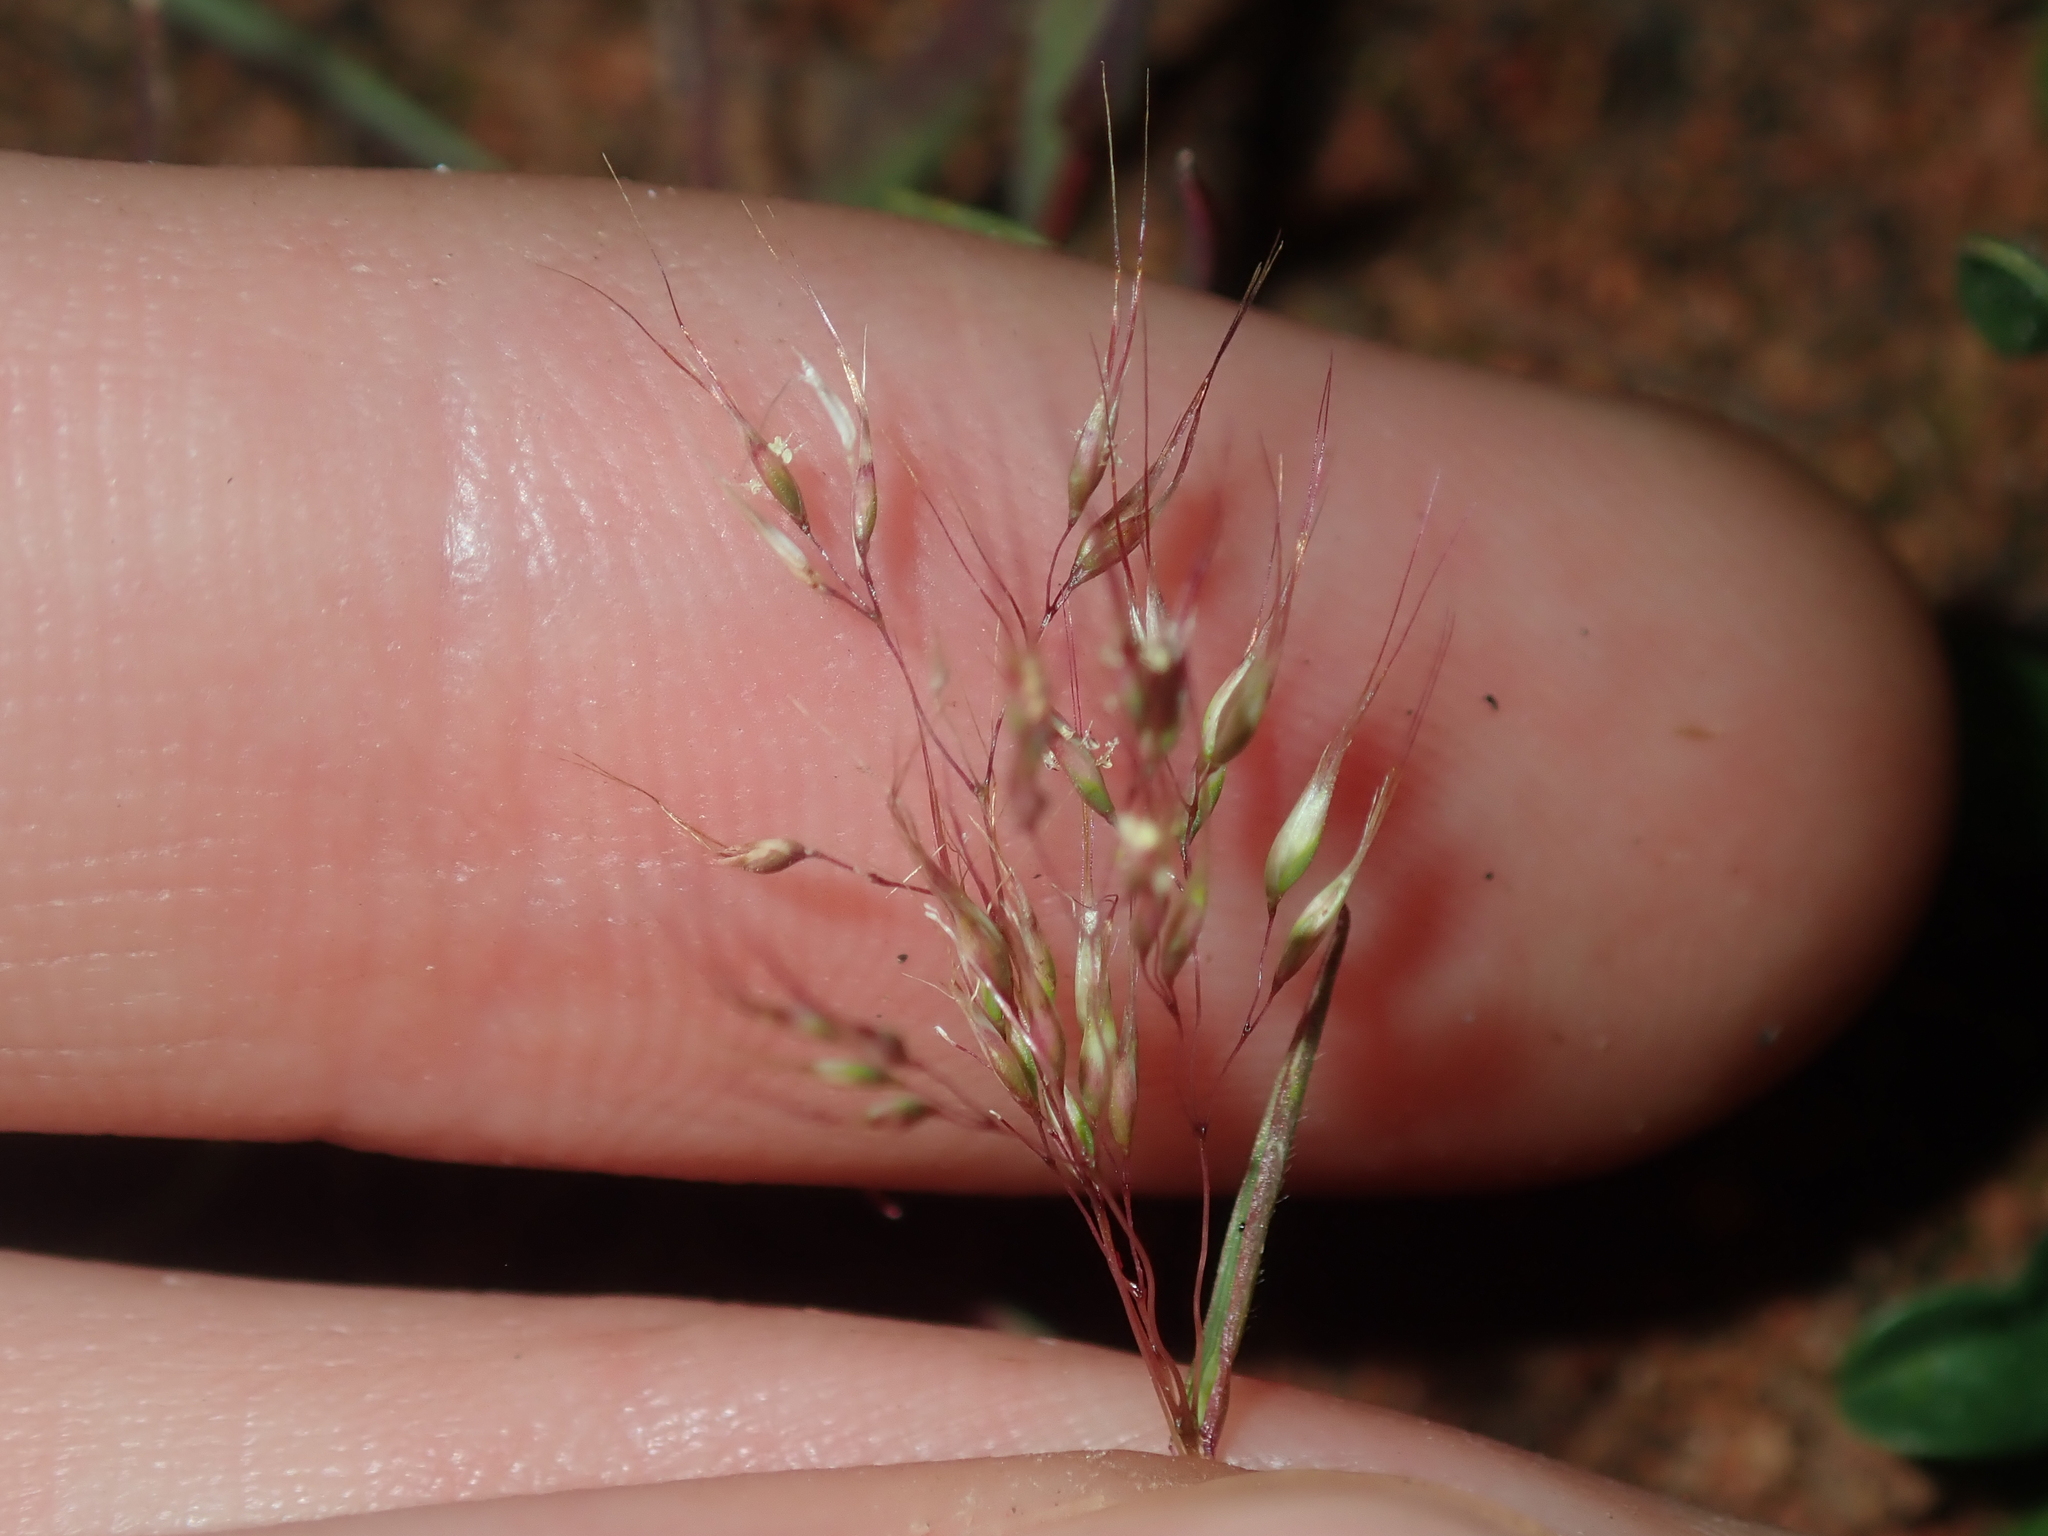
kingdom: Plantae
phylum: Tracheophyta
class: Liliopsida
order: Poales
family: Poaceae
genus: Pentameris
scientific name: Pentameris airoides
